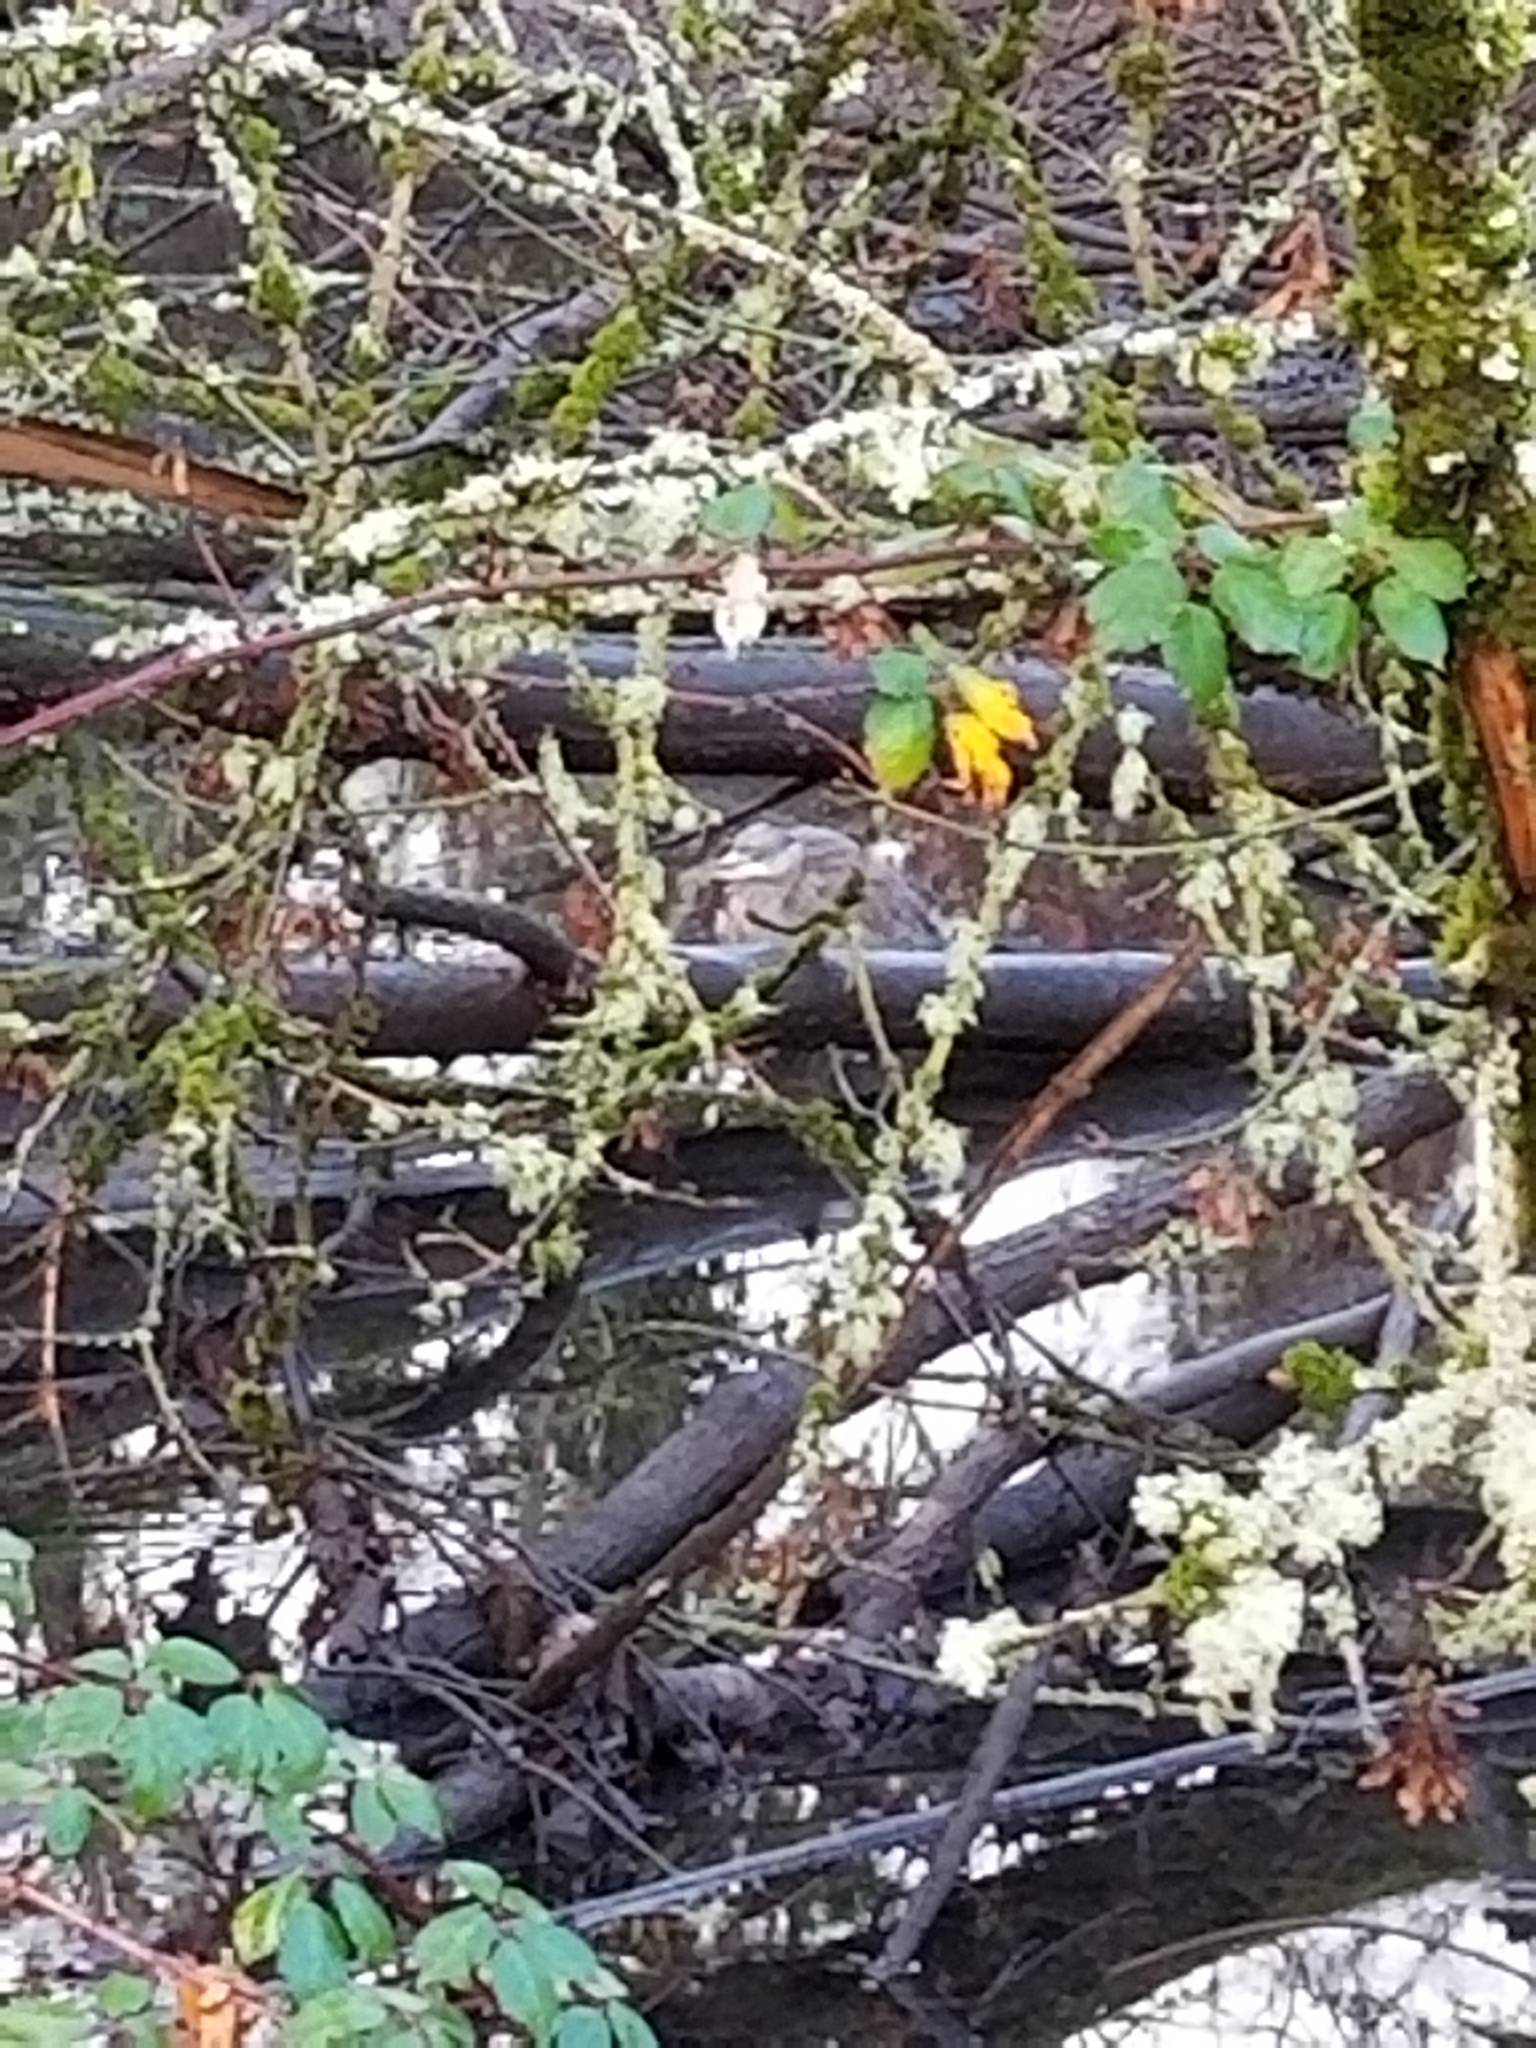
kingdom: Animalia
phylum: Chordata
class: Aves
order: Pelecaniformes
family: Ardeidae
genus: Ardea
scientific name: Ardea herodias
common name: Great blue heron
